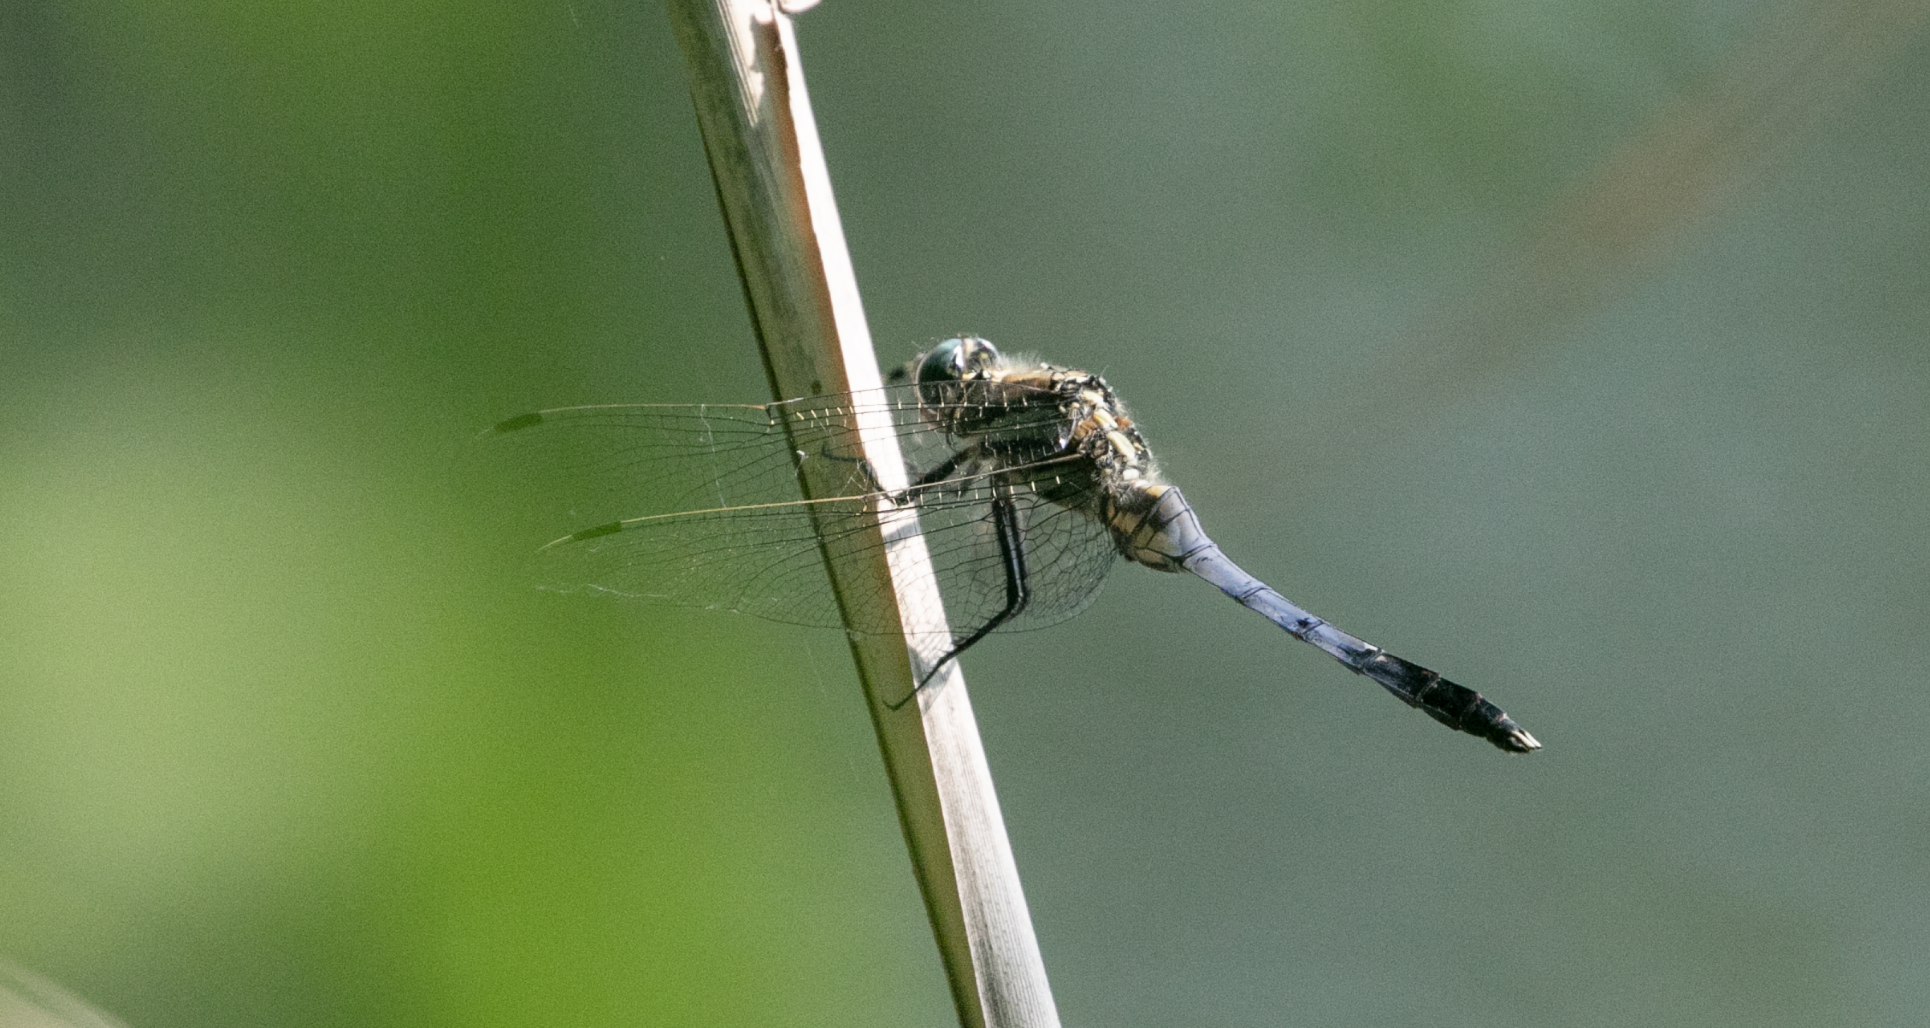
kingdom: Animalia
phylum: Arthropoda
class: Insecta
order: Odonata
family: Libellulidae
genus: Orthetrum
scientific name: Orthetrum albistylum
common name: White-tailed skimmer
